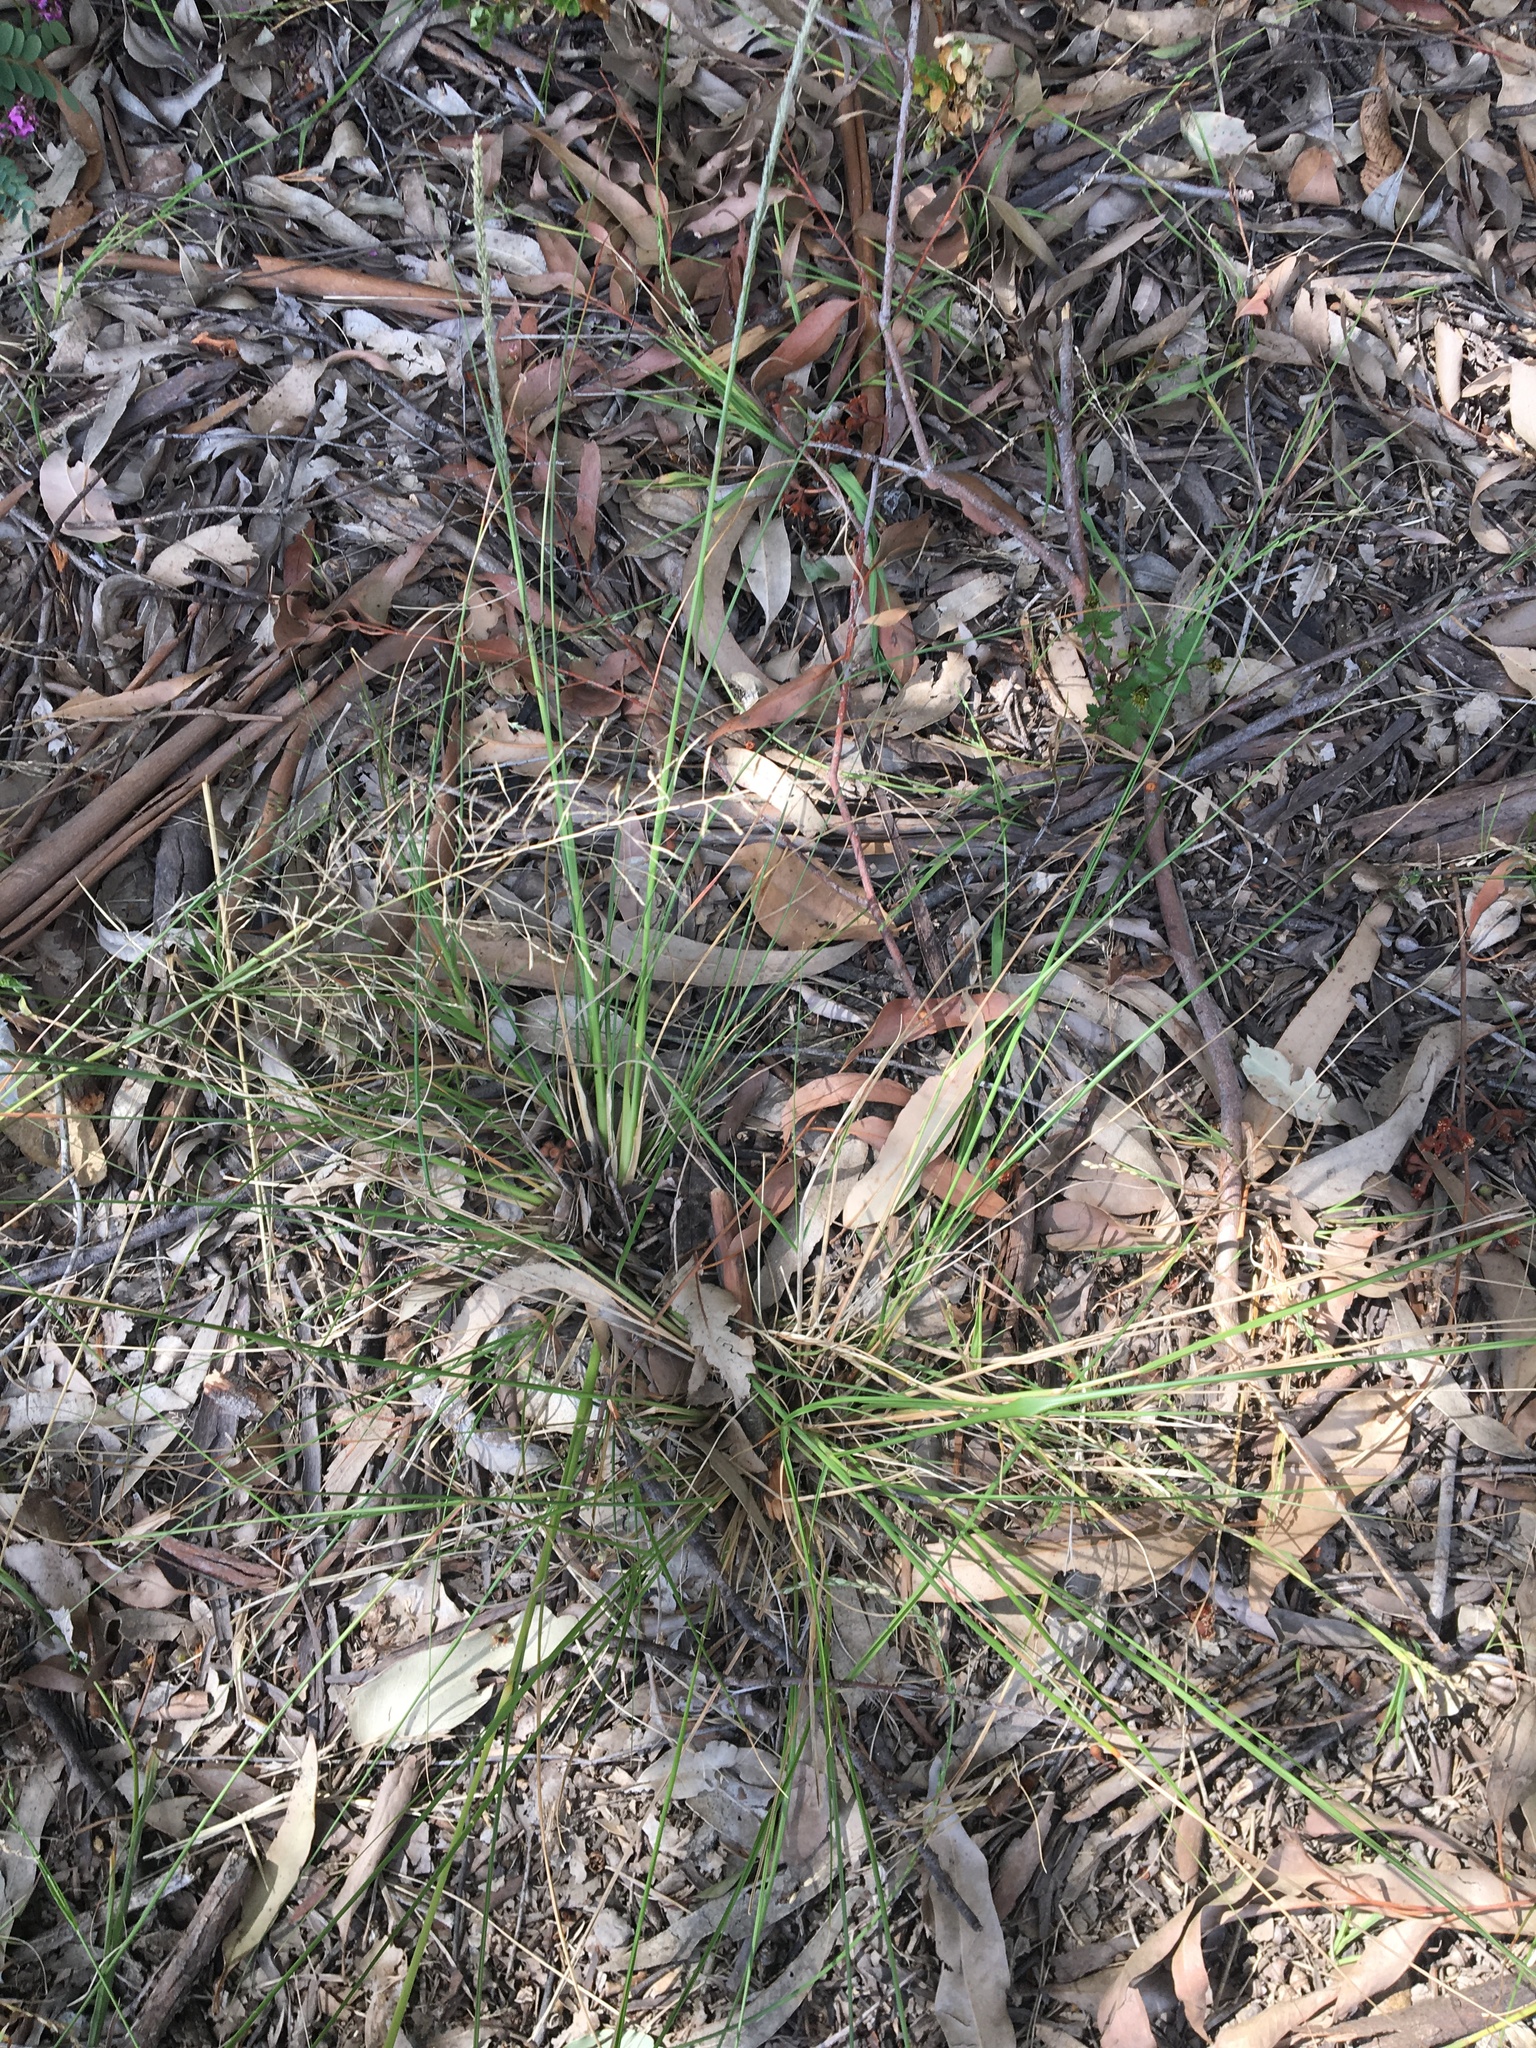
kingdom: Plantae
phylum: Tracheophyta
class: Liliopsida
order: Poales
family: Poaceae
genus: Sporobolus
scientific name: Sporobolus africanus
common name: African dropseed
